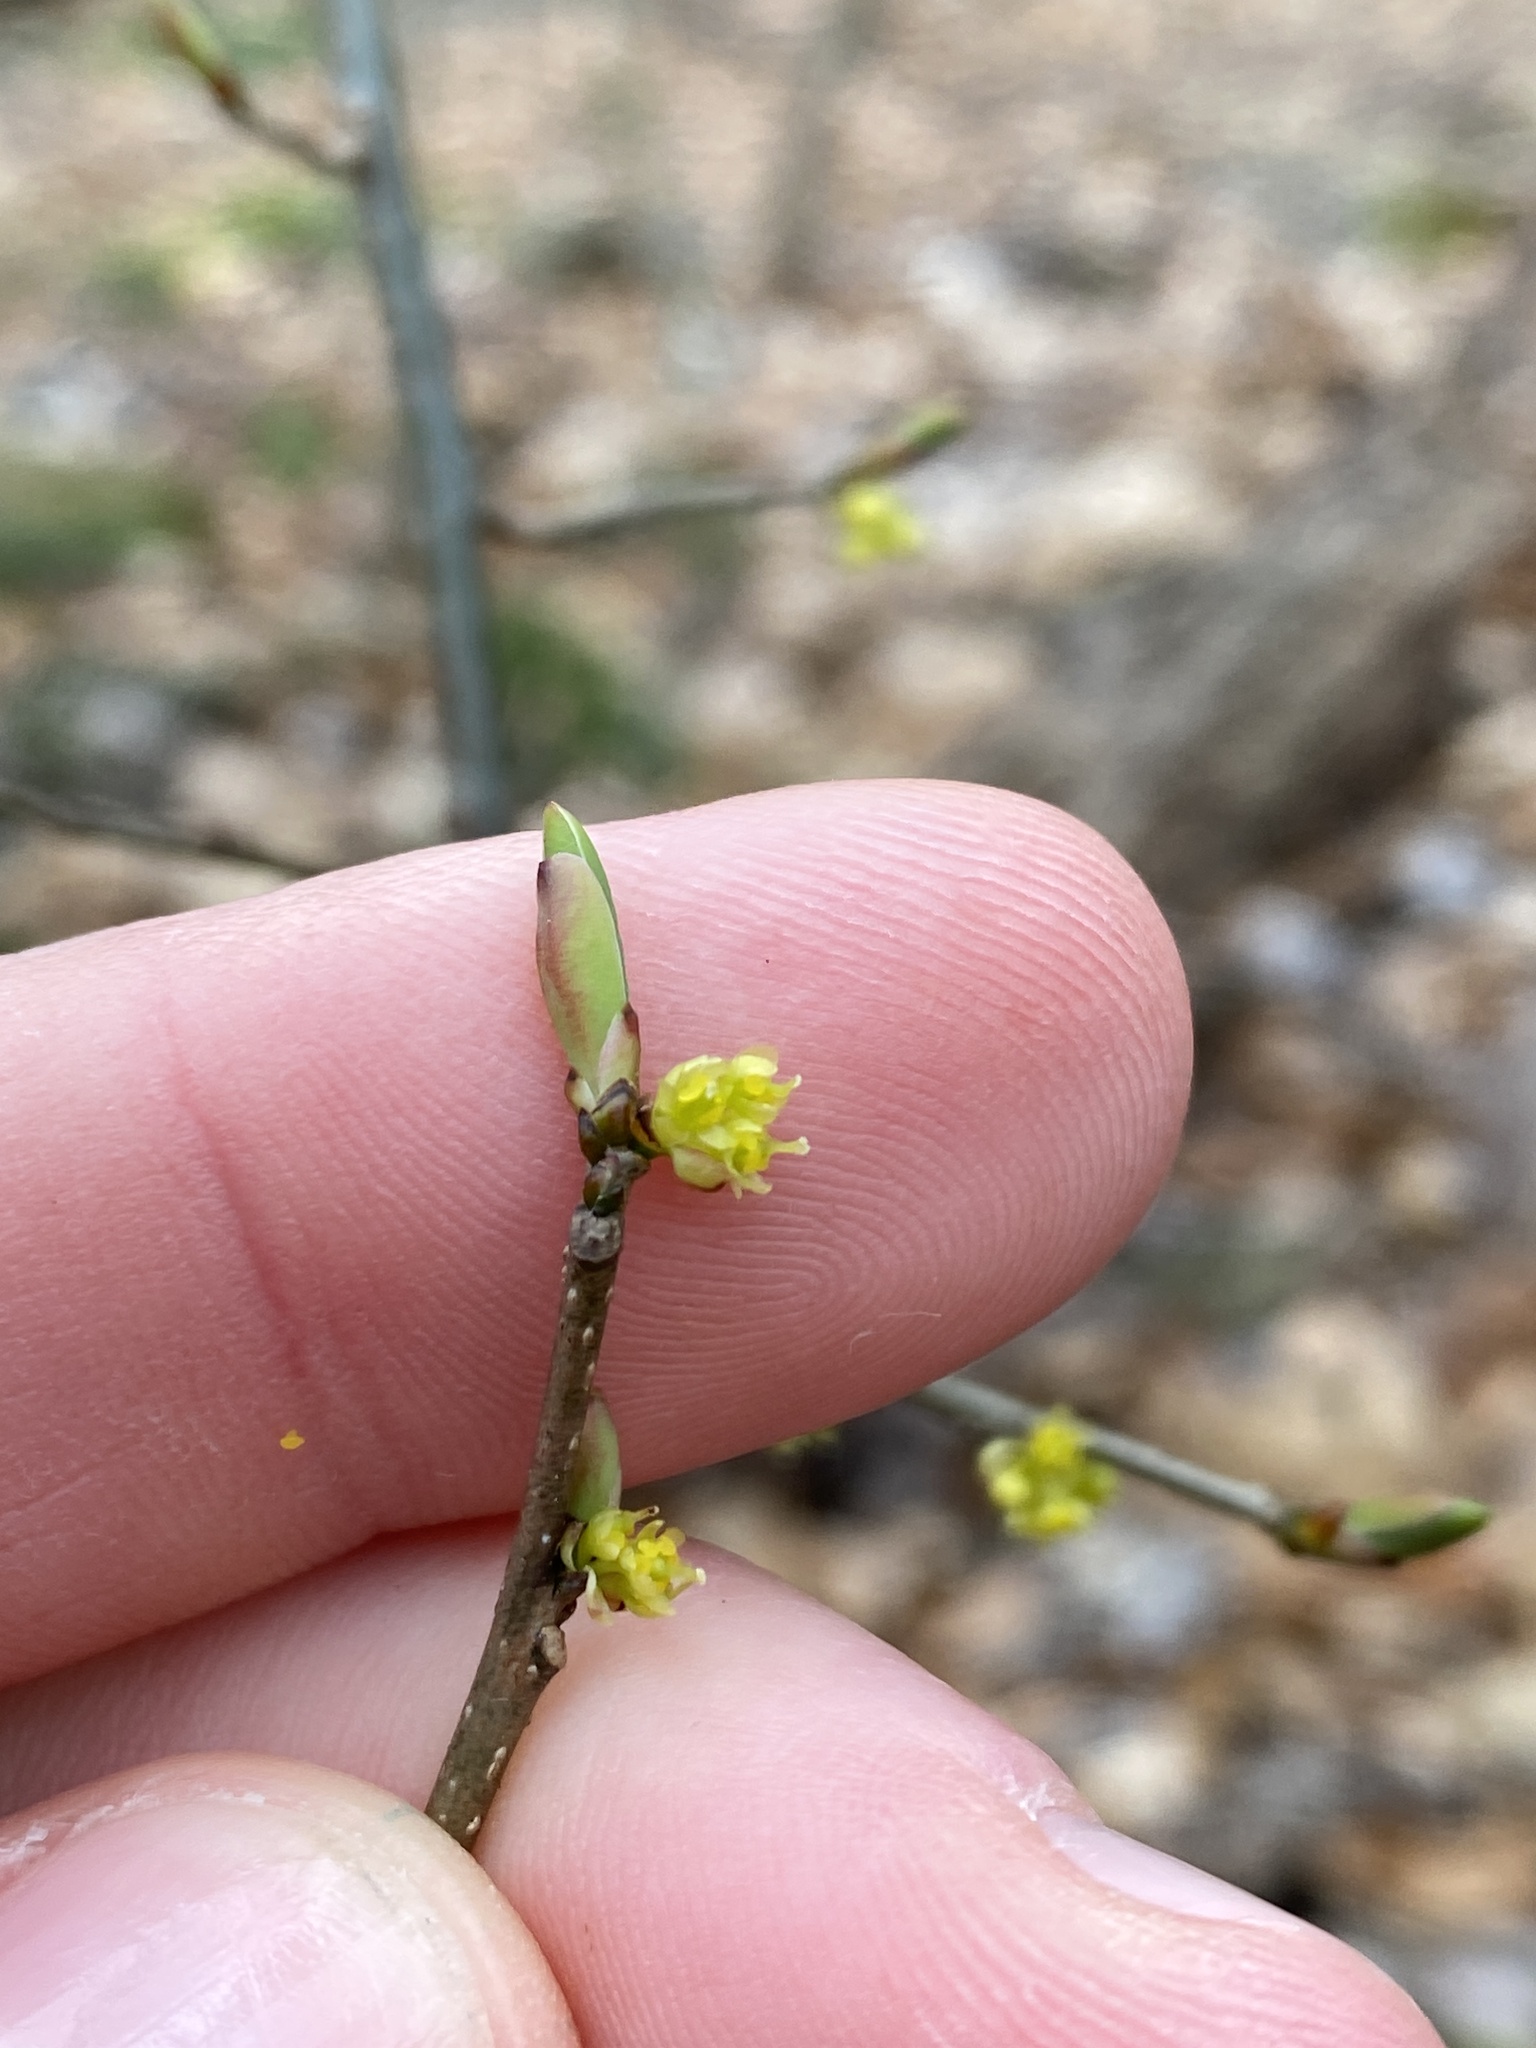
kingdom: Plantae
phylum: Tracheophyta
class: Magnoliopsida
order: Laurales
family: Lauraceae
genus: Lindera
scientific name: Lindera benzoin
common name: Spicebush
